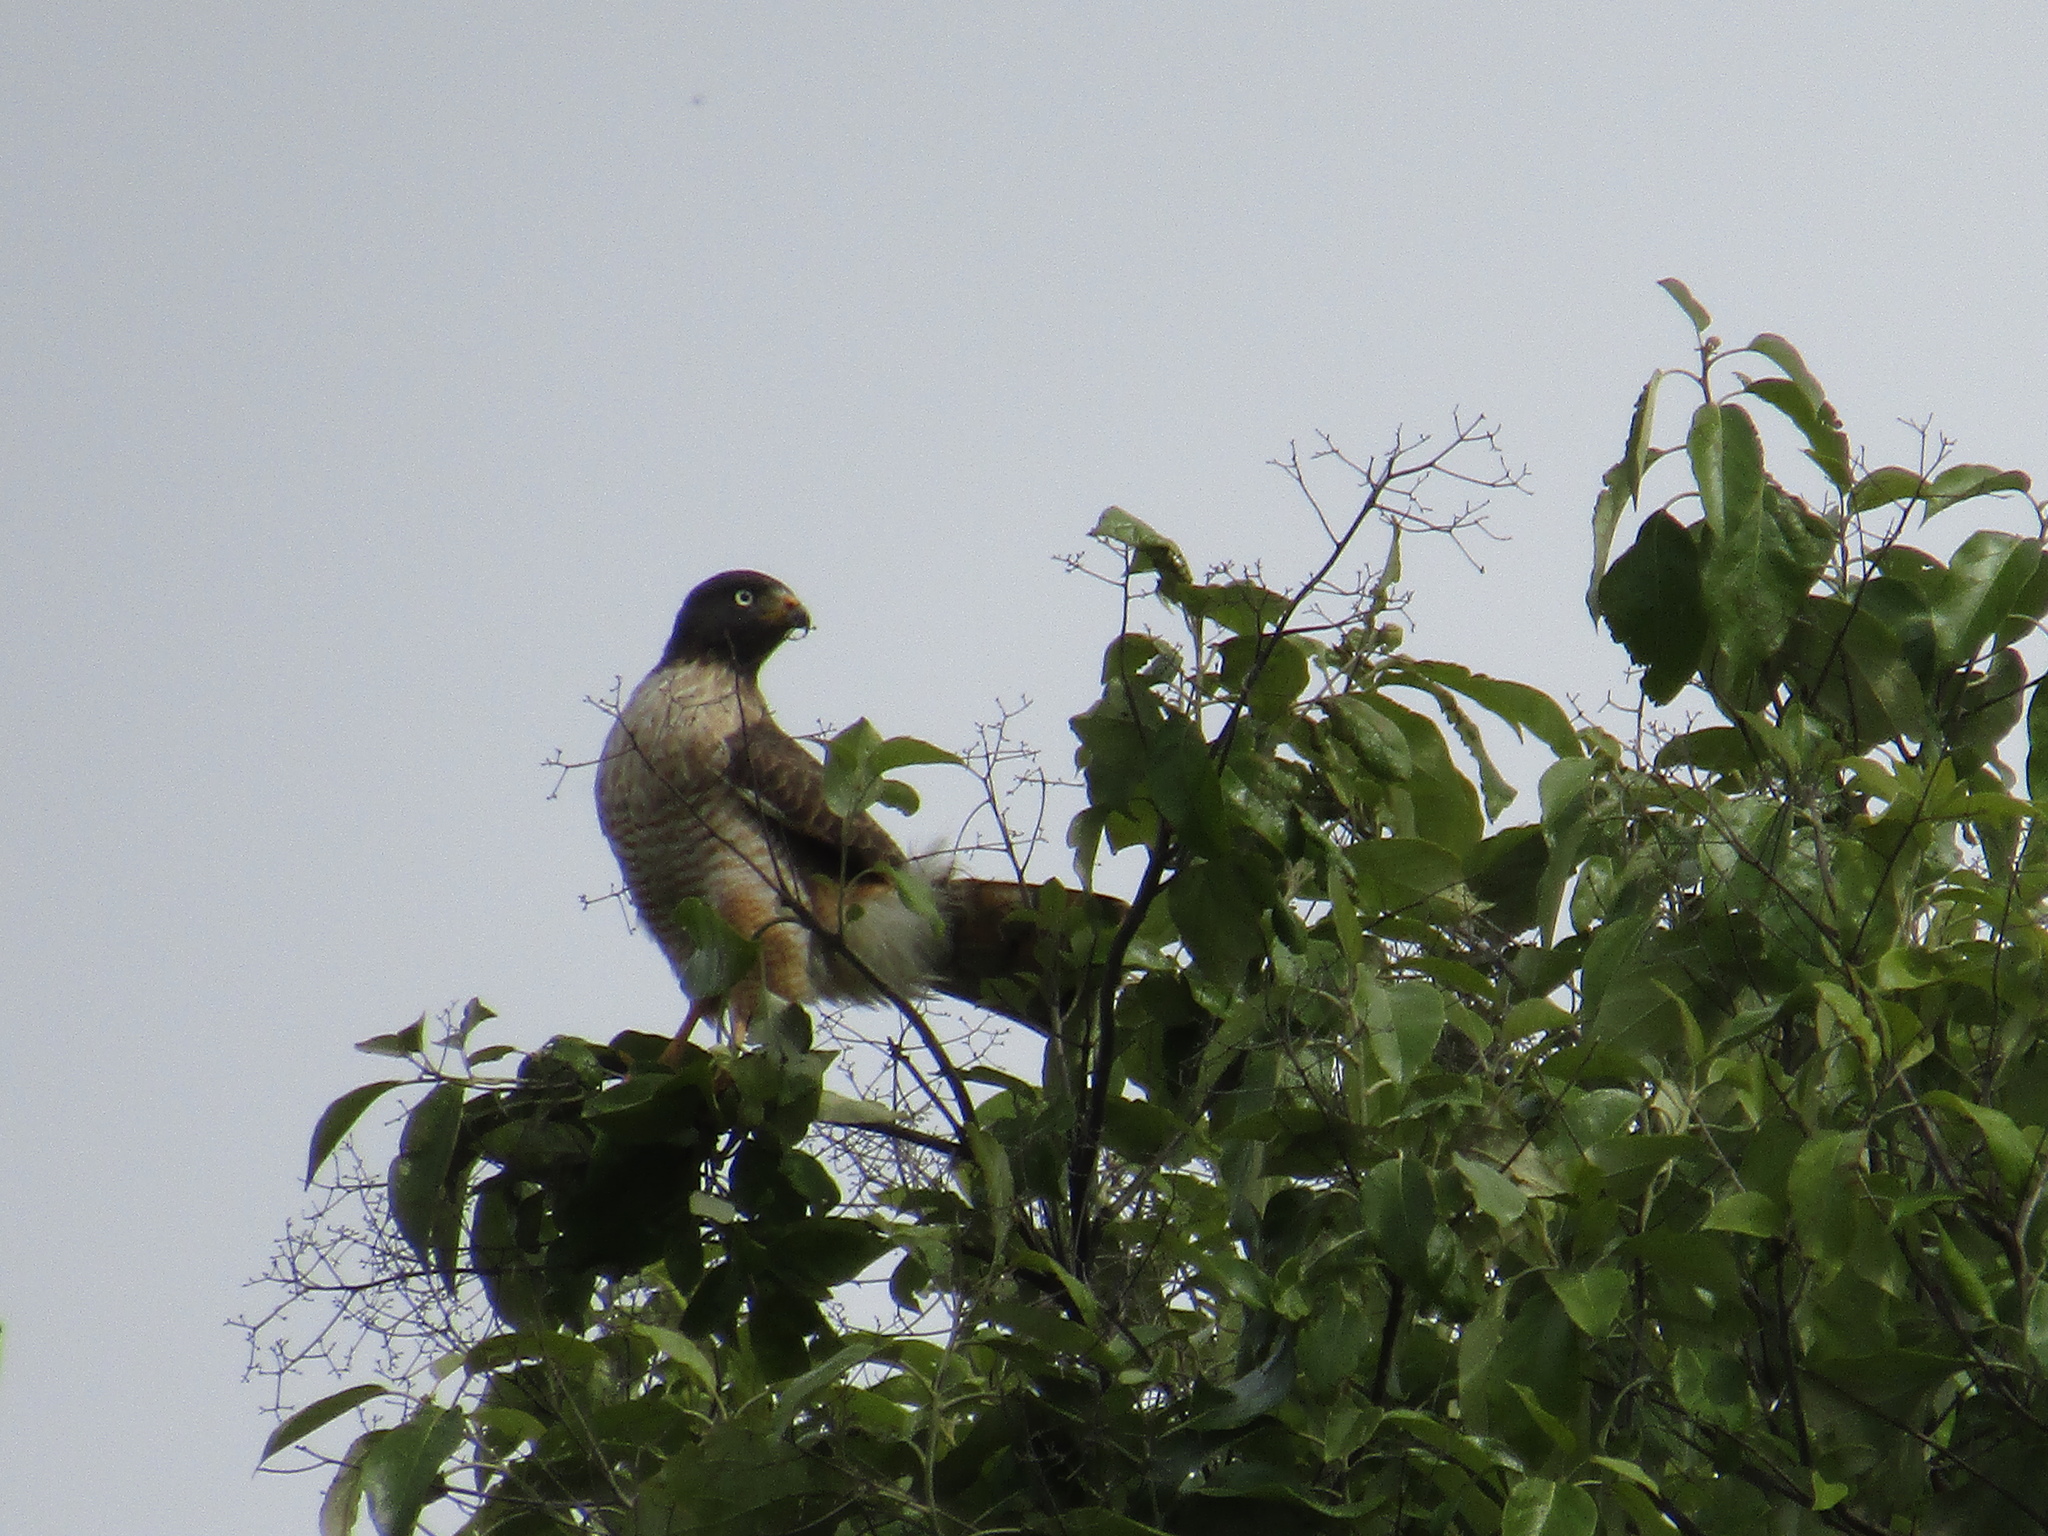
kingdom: Animalia
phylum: Chordata
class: Aves
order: Accipitriformes
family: Accipitridae
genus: Rupornis
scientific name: Rupornis magnirostris
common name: Roadside hawk
